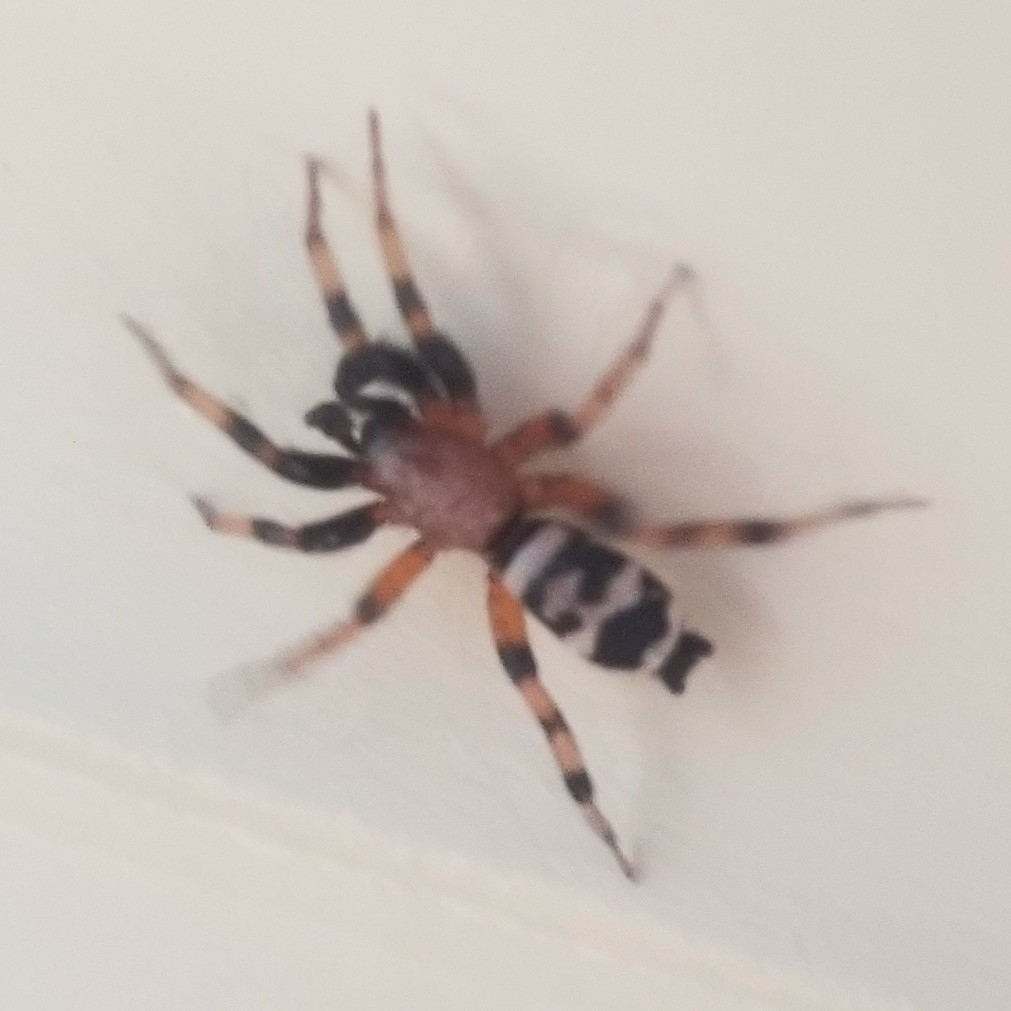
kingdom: Animalia
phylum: Arthropoda
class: Arachnida
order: Araneae
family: Gnaphosidae
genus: Sergiolus
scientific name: Sergiolus capulatus
